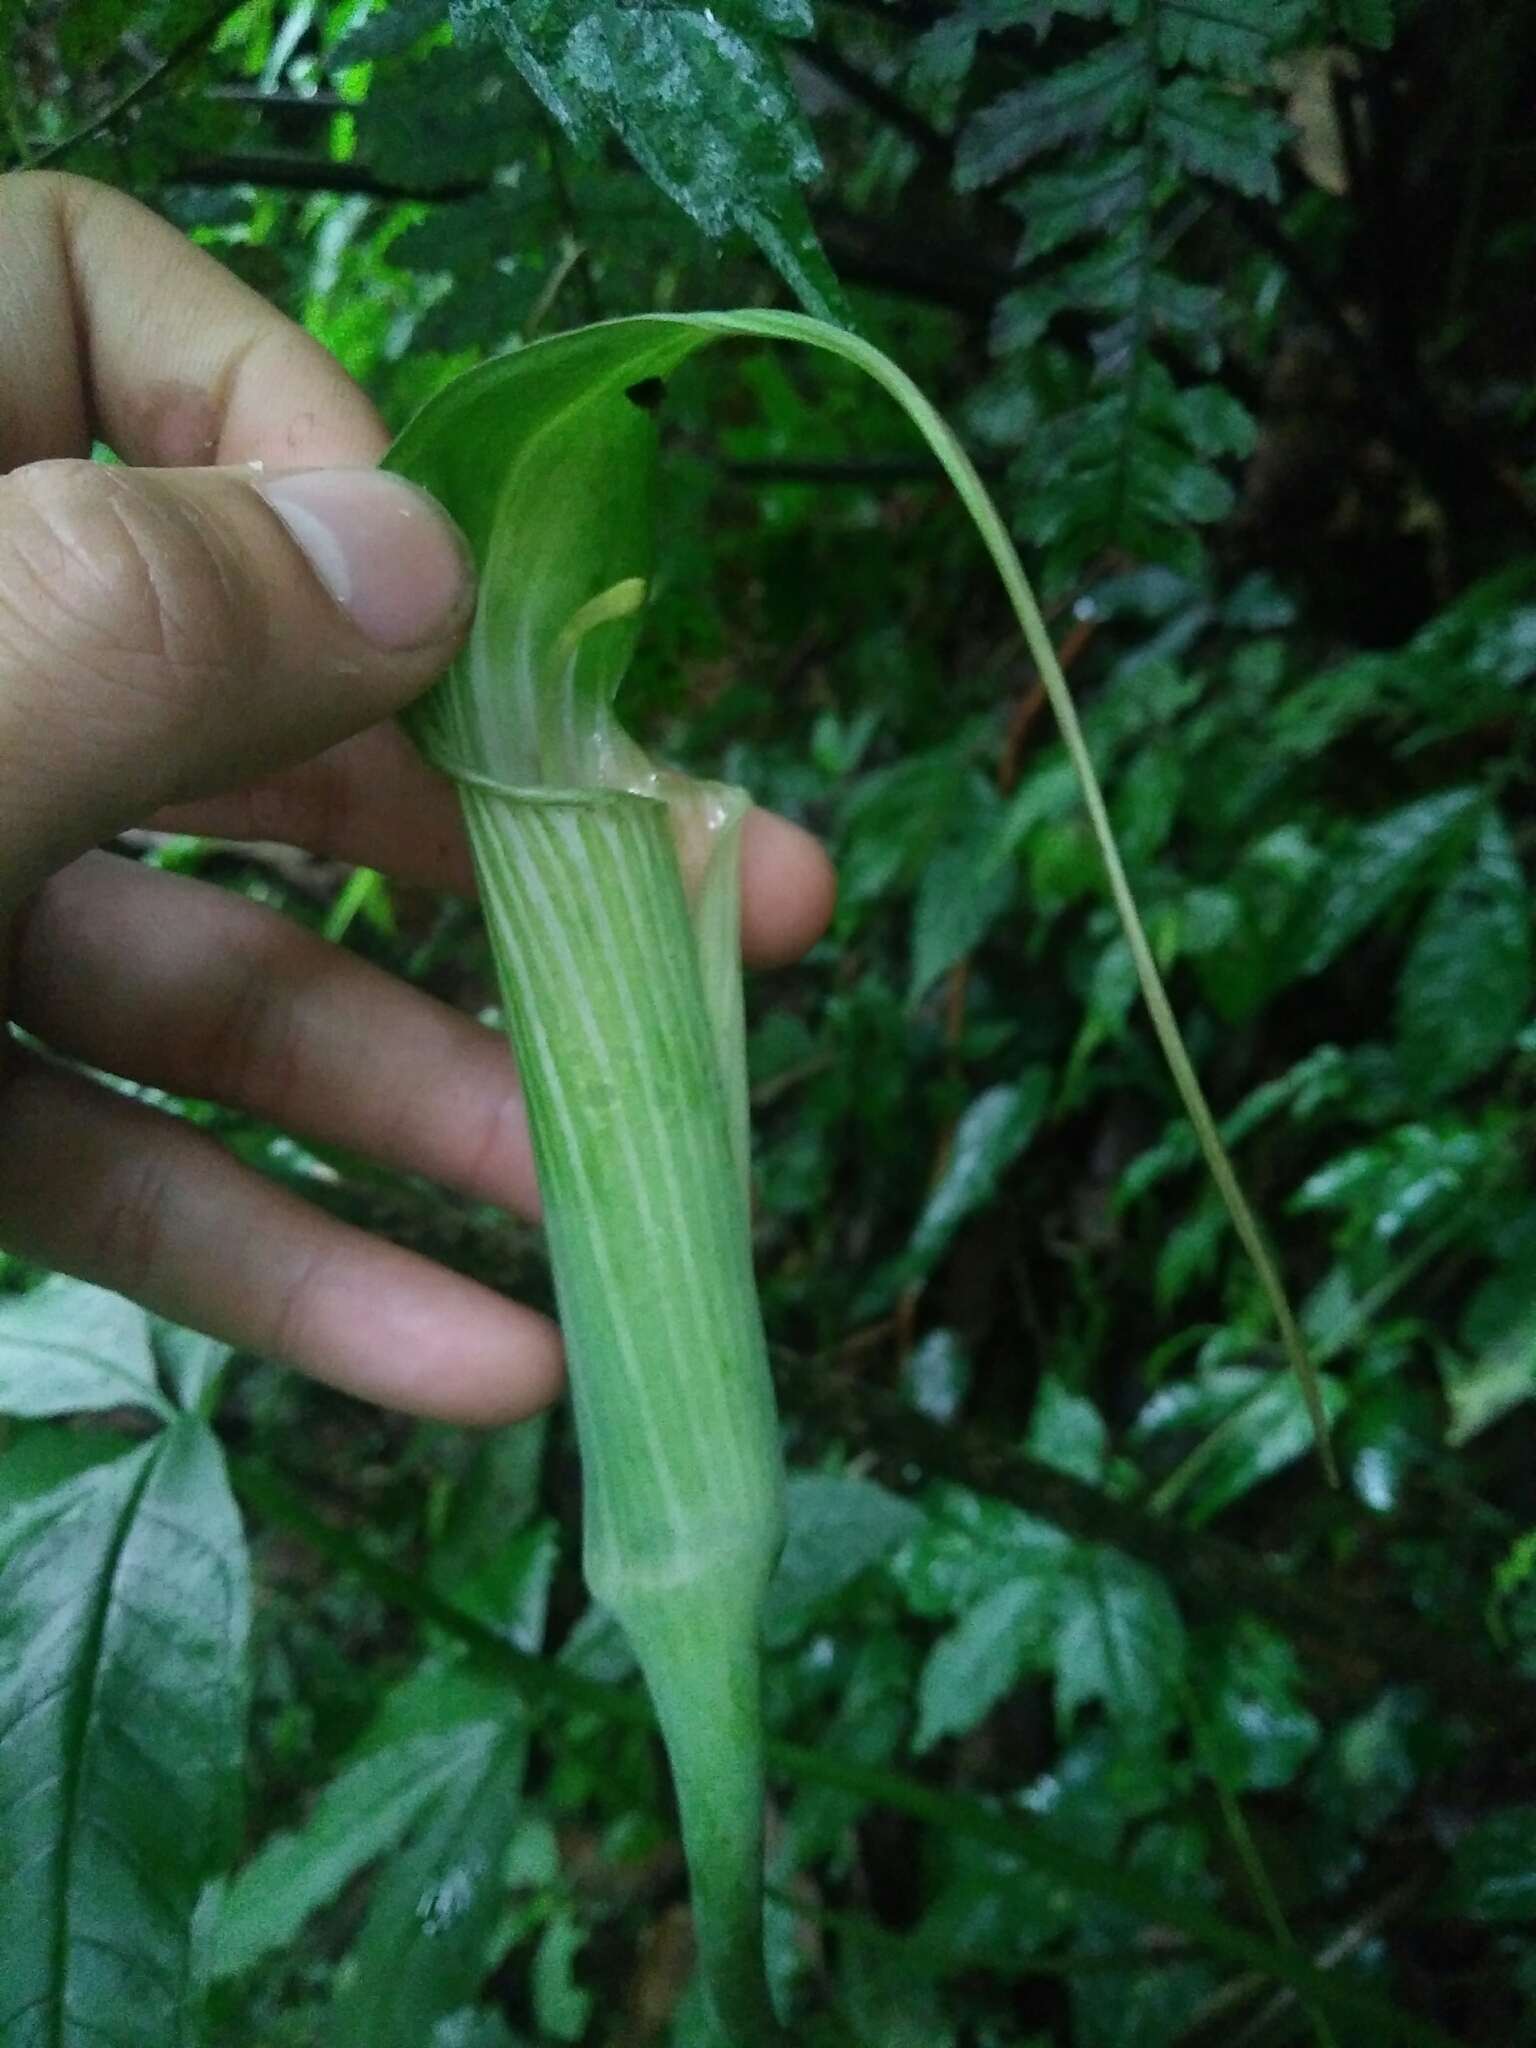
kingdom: Plantae
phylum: Tracheophyta
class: Liliopsida
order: Alismatales
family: Araceae
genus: Arisaema
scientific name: Arisaema formosanum
